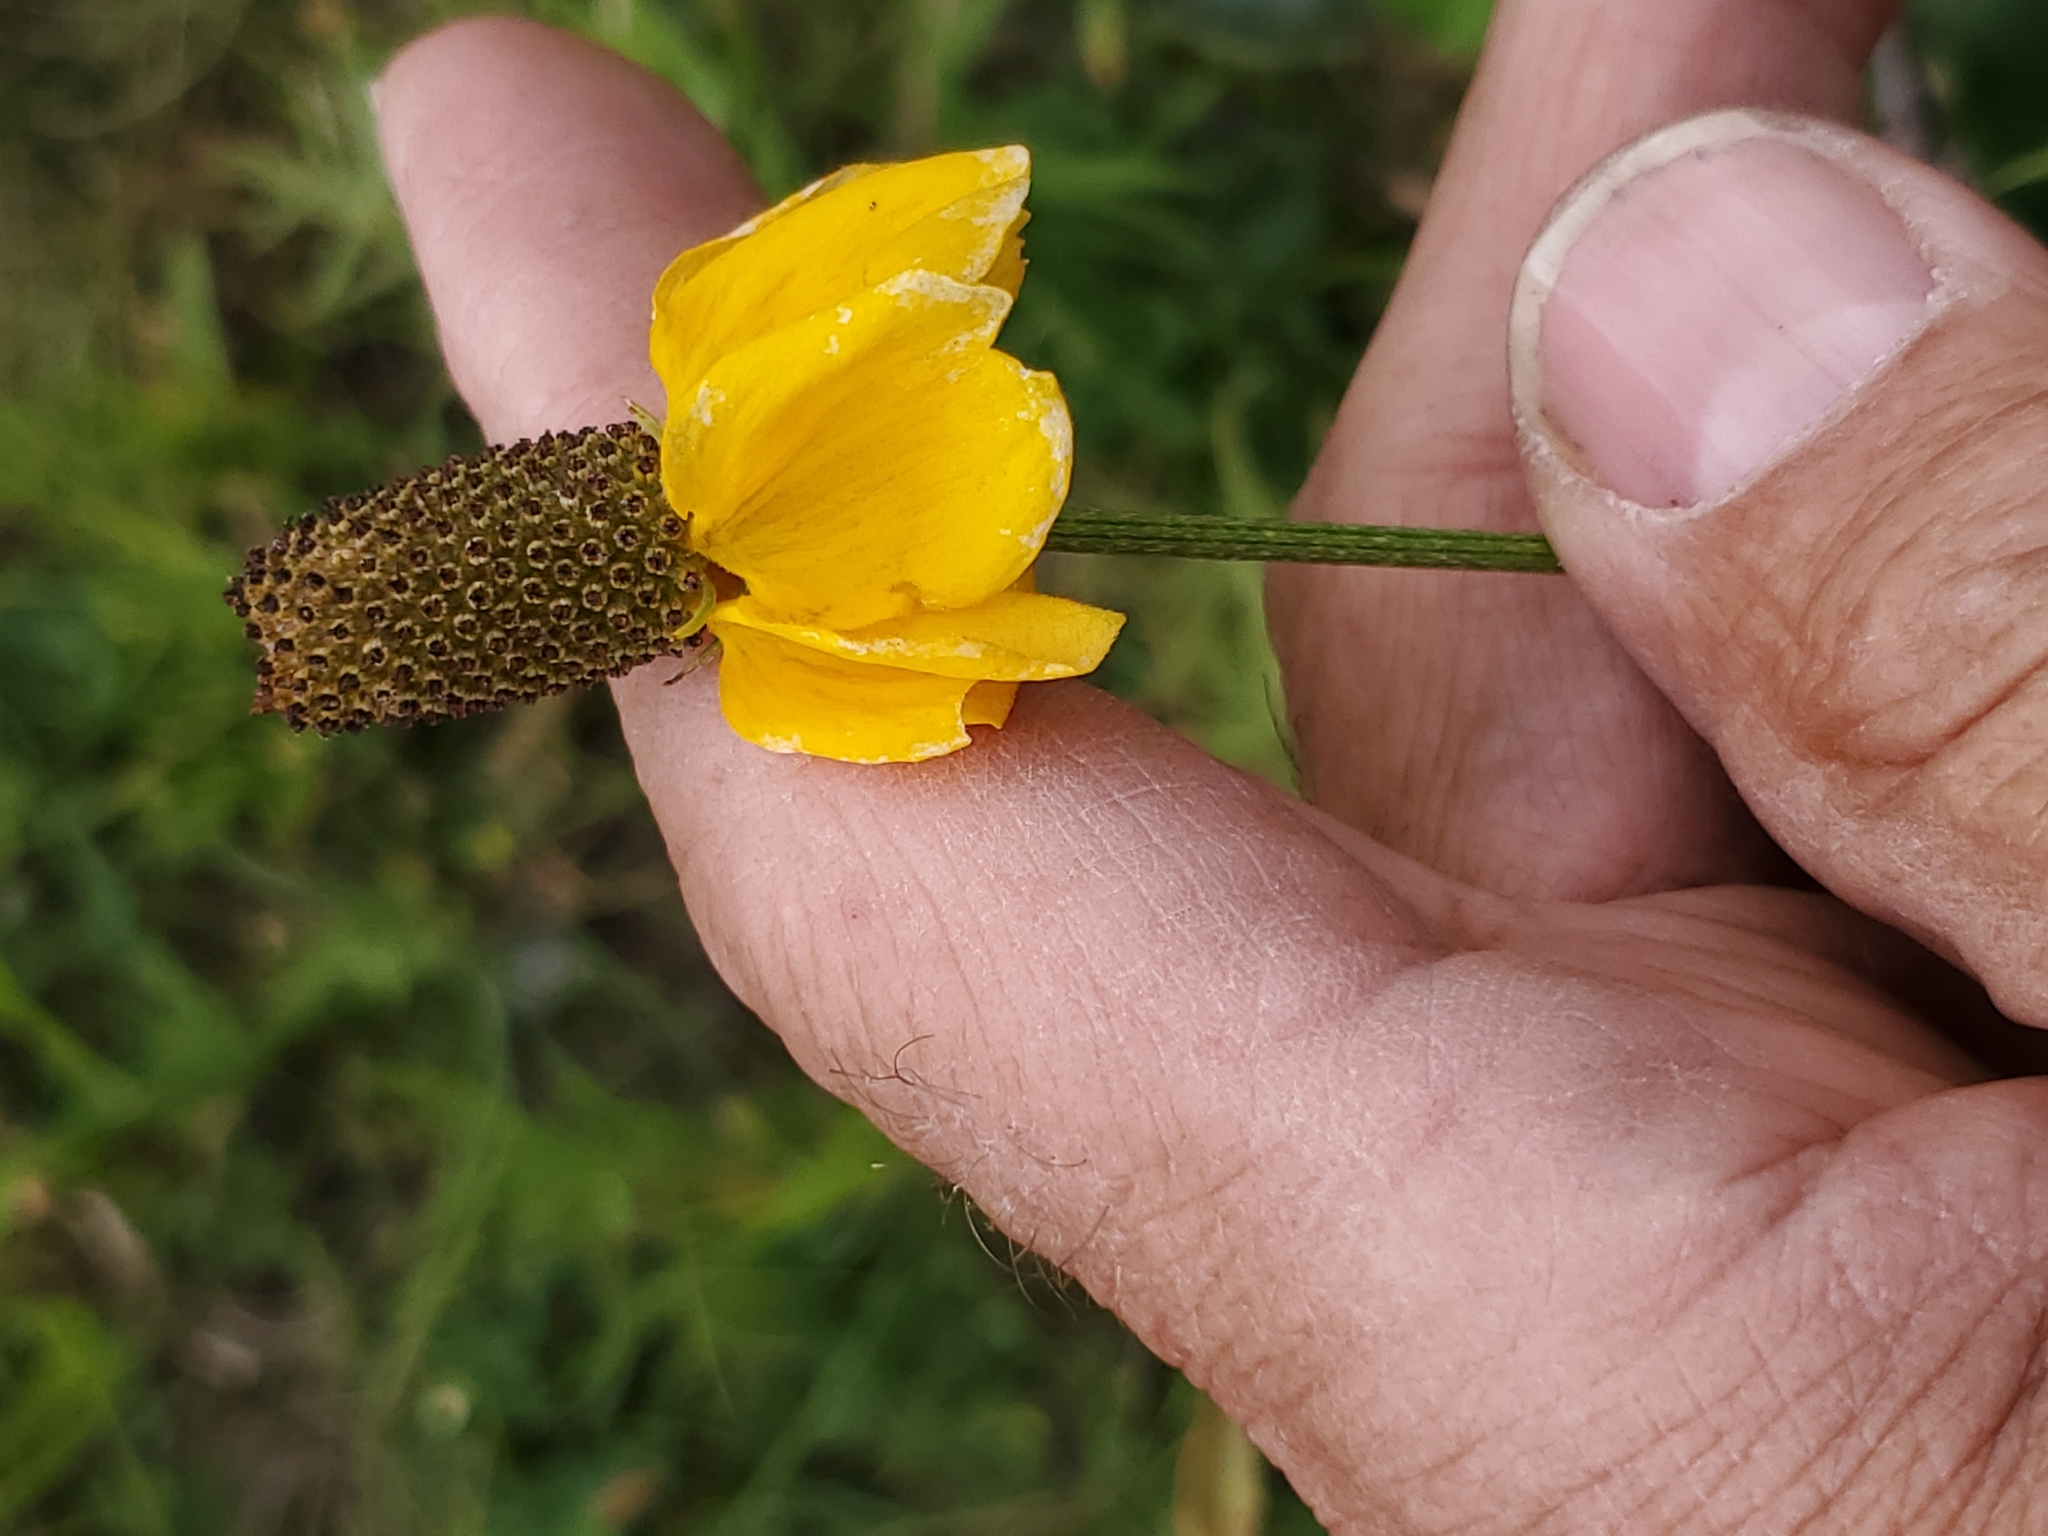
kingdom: Plantae
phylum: Tracheophyta
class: Magnoliopsida
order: Asterales
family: Asteraceae
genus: Ratibida
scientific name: Ratibida columnifera
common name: Prairie coneflower
